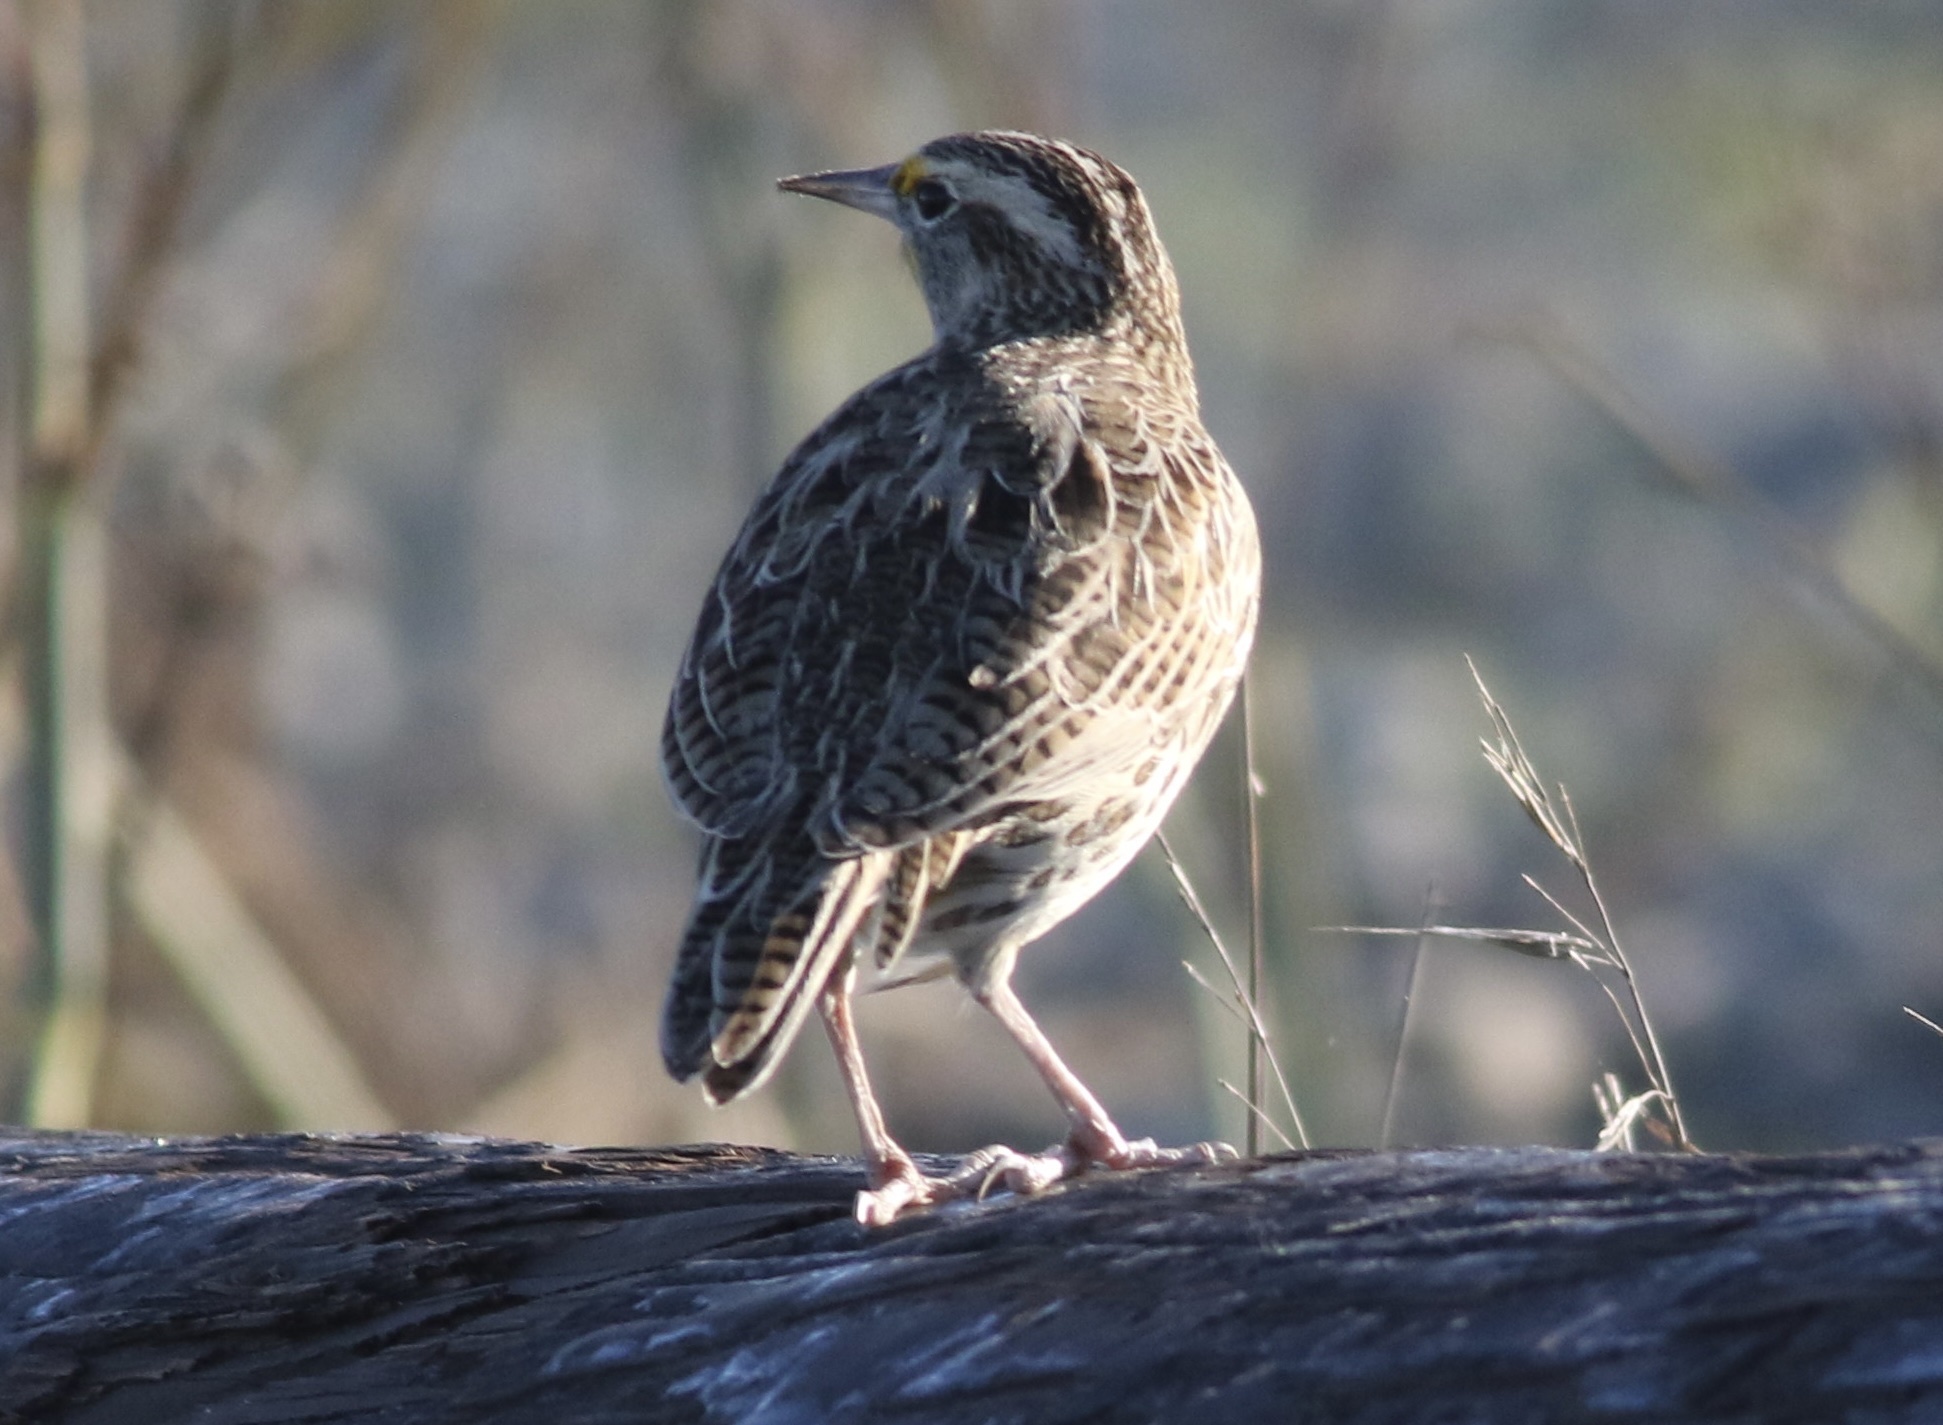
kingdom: Animalia
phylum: Chordata
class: Aves
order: Passeriformes
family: Icteridae
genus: Sturnella
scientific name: Sturnella neglecta
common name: Western meadowlark
